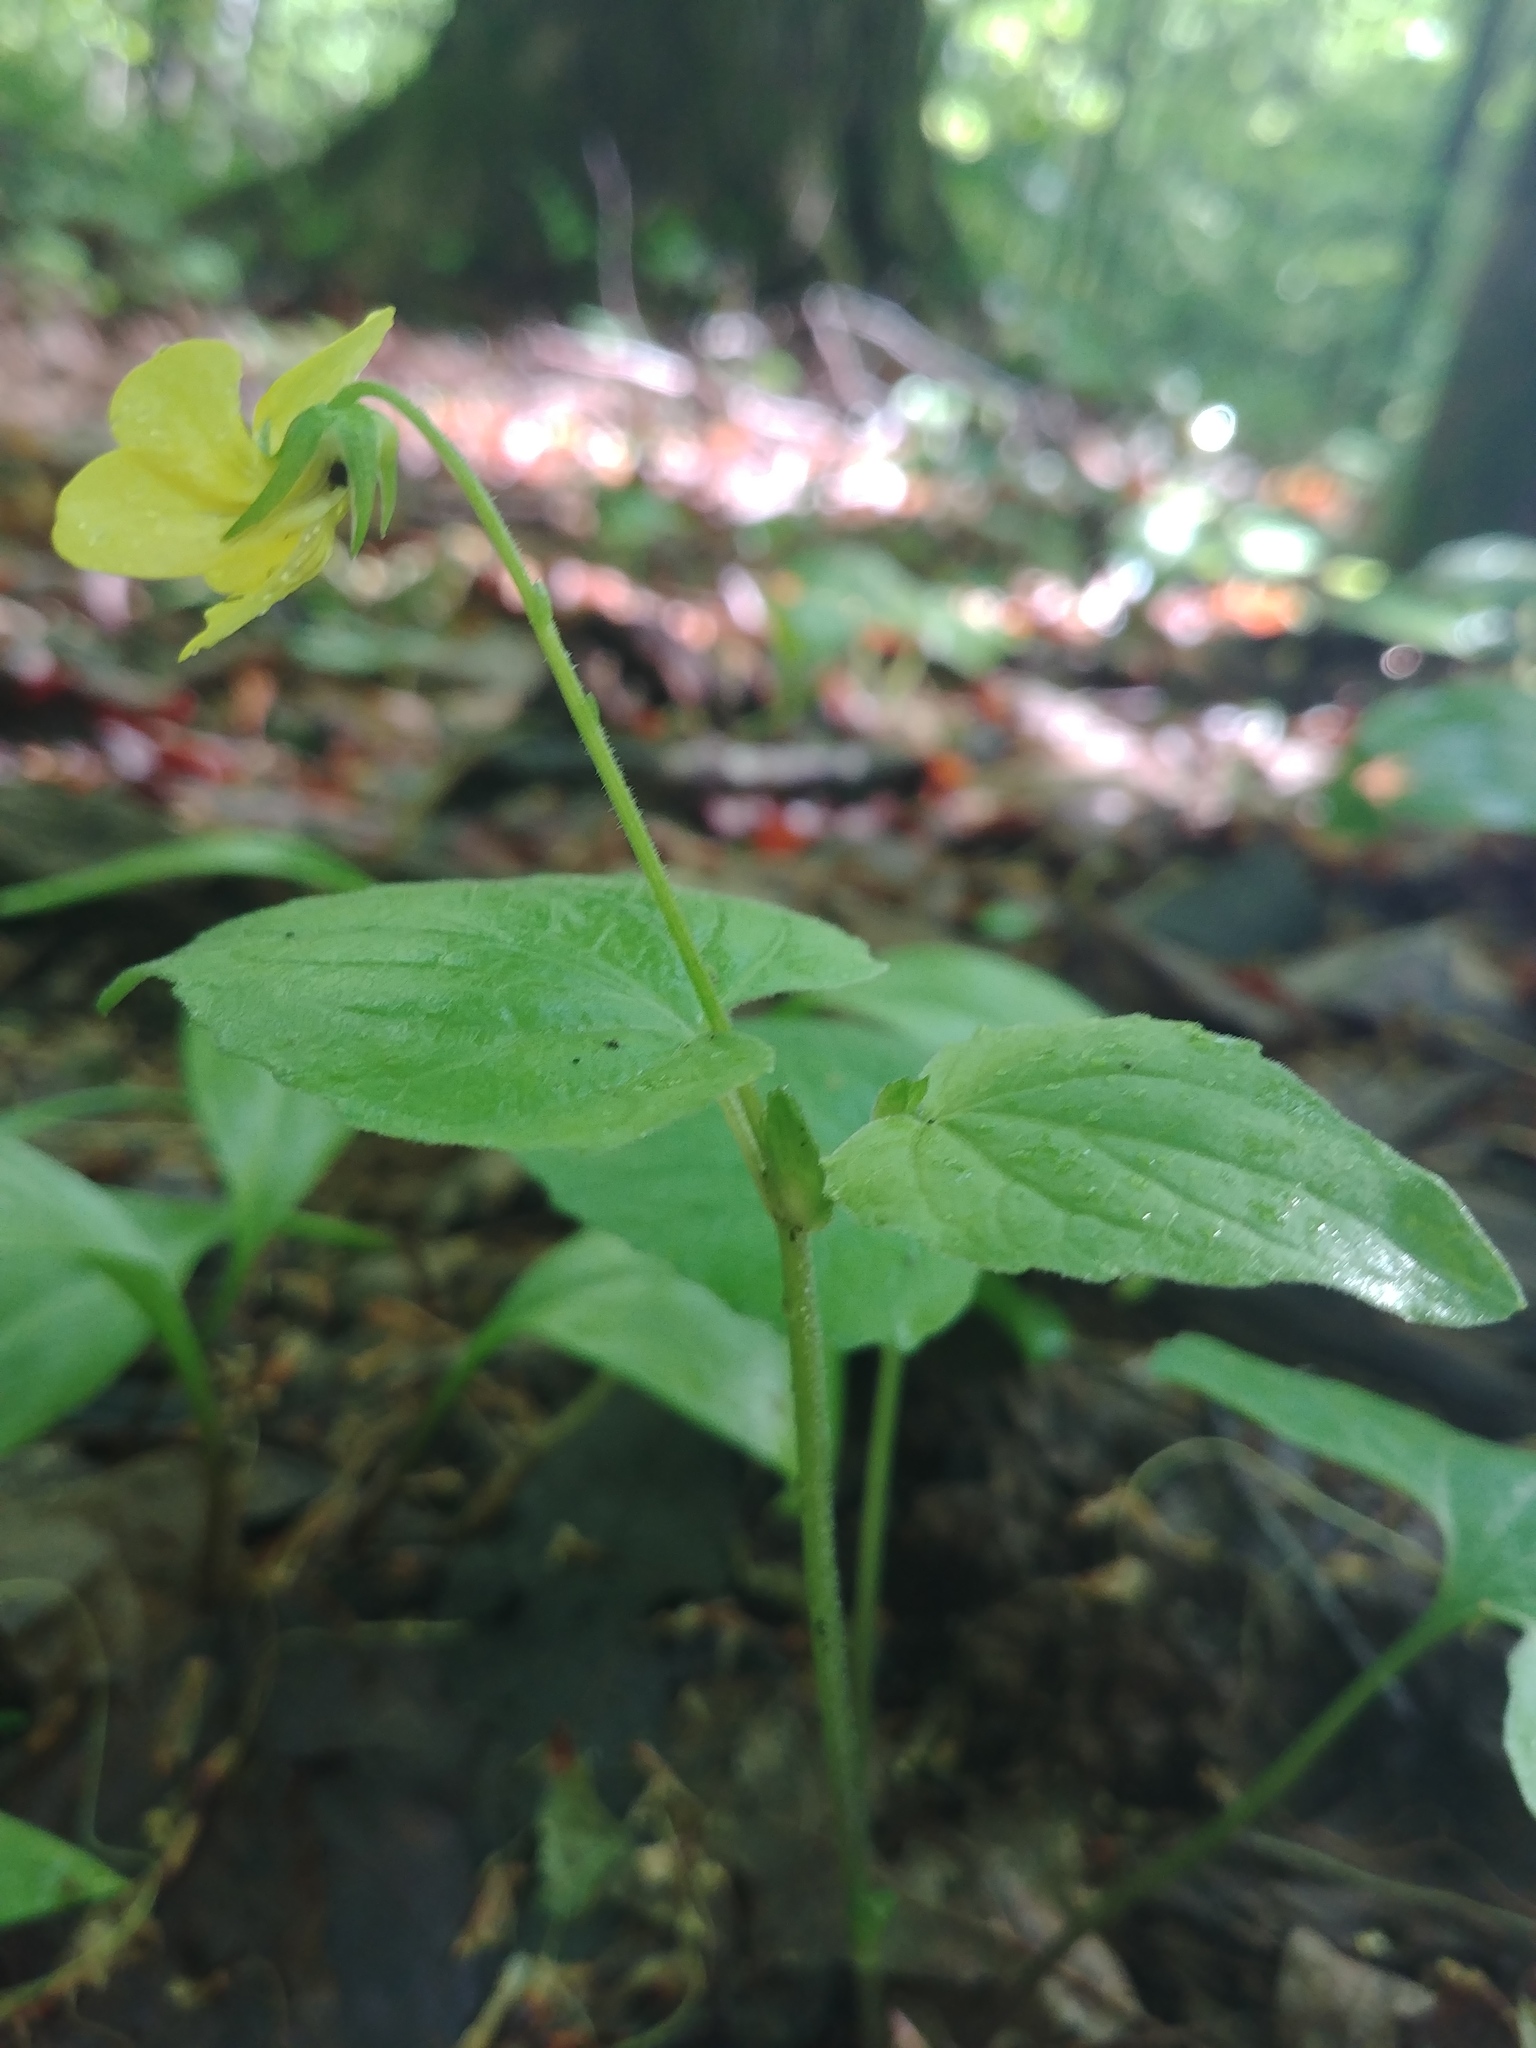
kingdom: Plantae
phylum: Tracheophyta
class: Magnoliopsida
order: Malpighiales
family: Violaceae
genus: Viola
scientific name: Viola eriocarpa
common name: Smooth yellow violet
